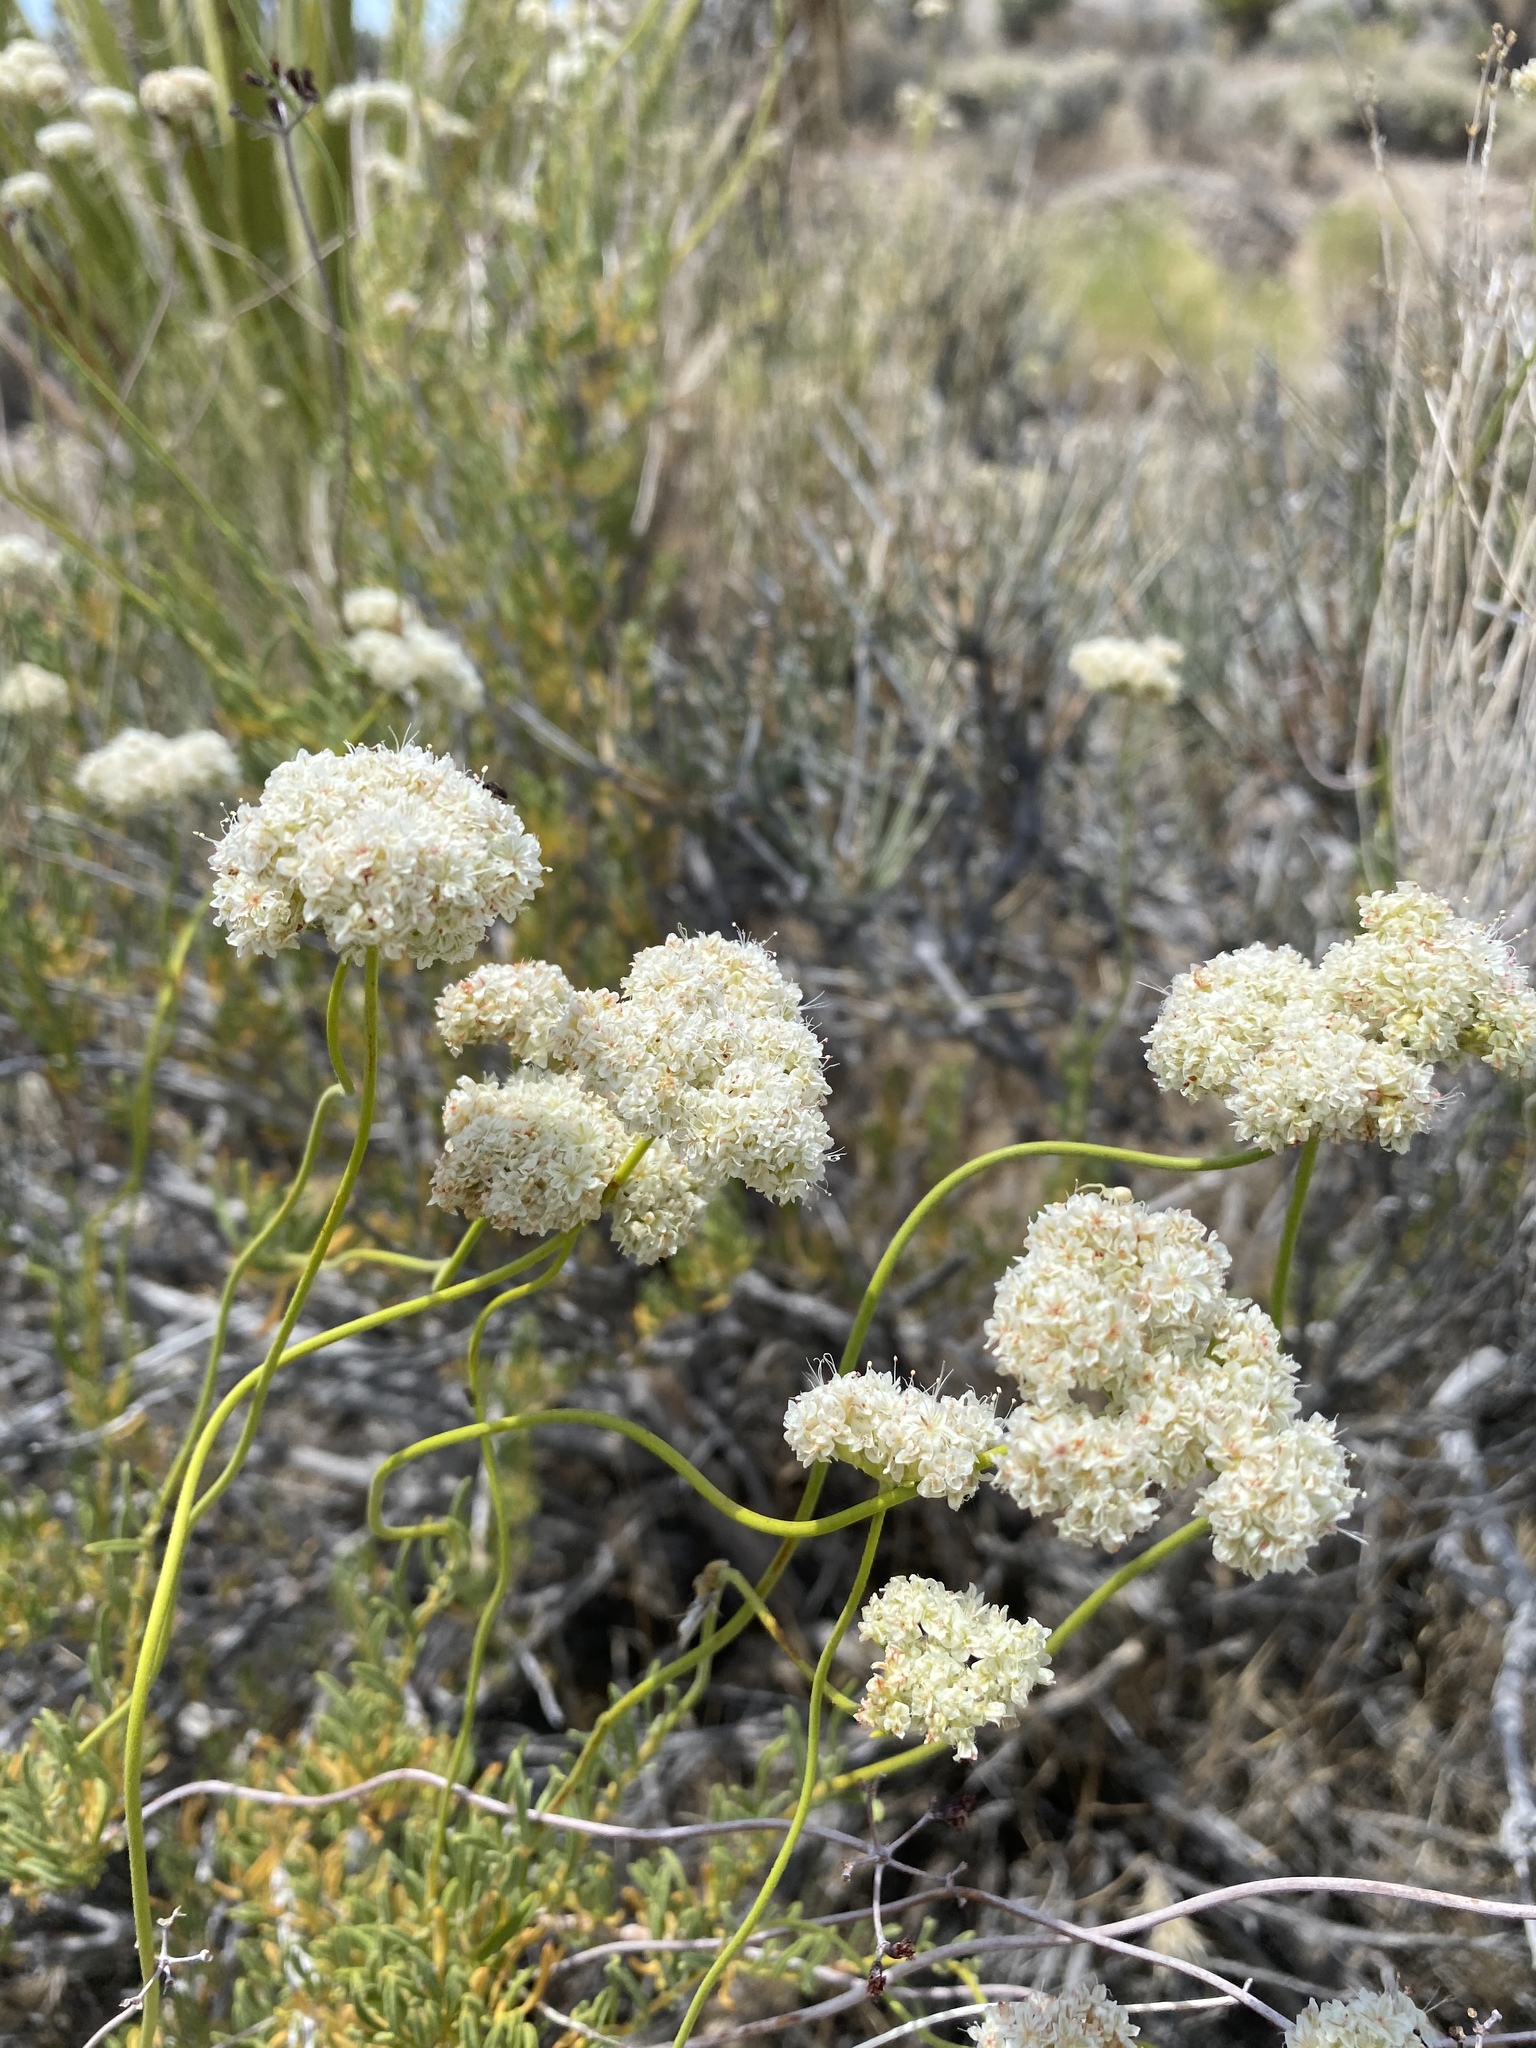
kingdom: Plantae
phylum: Tracheophyta
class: Magnoliopsida
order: Caryophyllales
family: Polygonaceae
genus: Eriogonum
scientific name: Eriogonum fasciculatum
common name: California wild buckwheat
